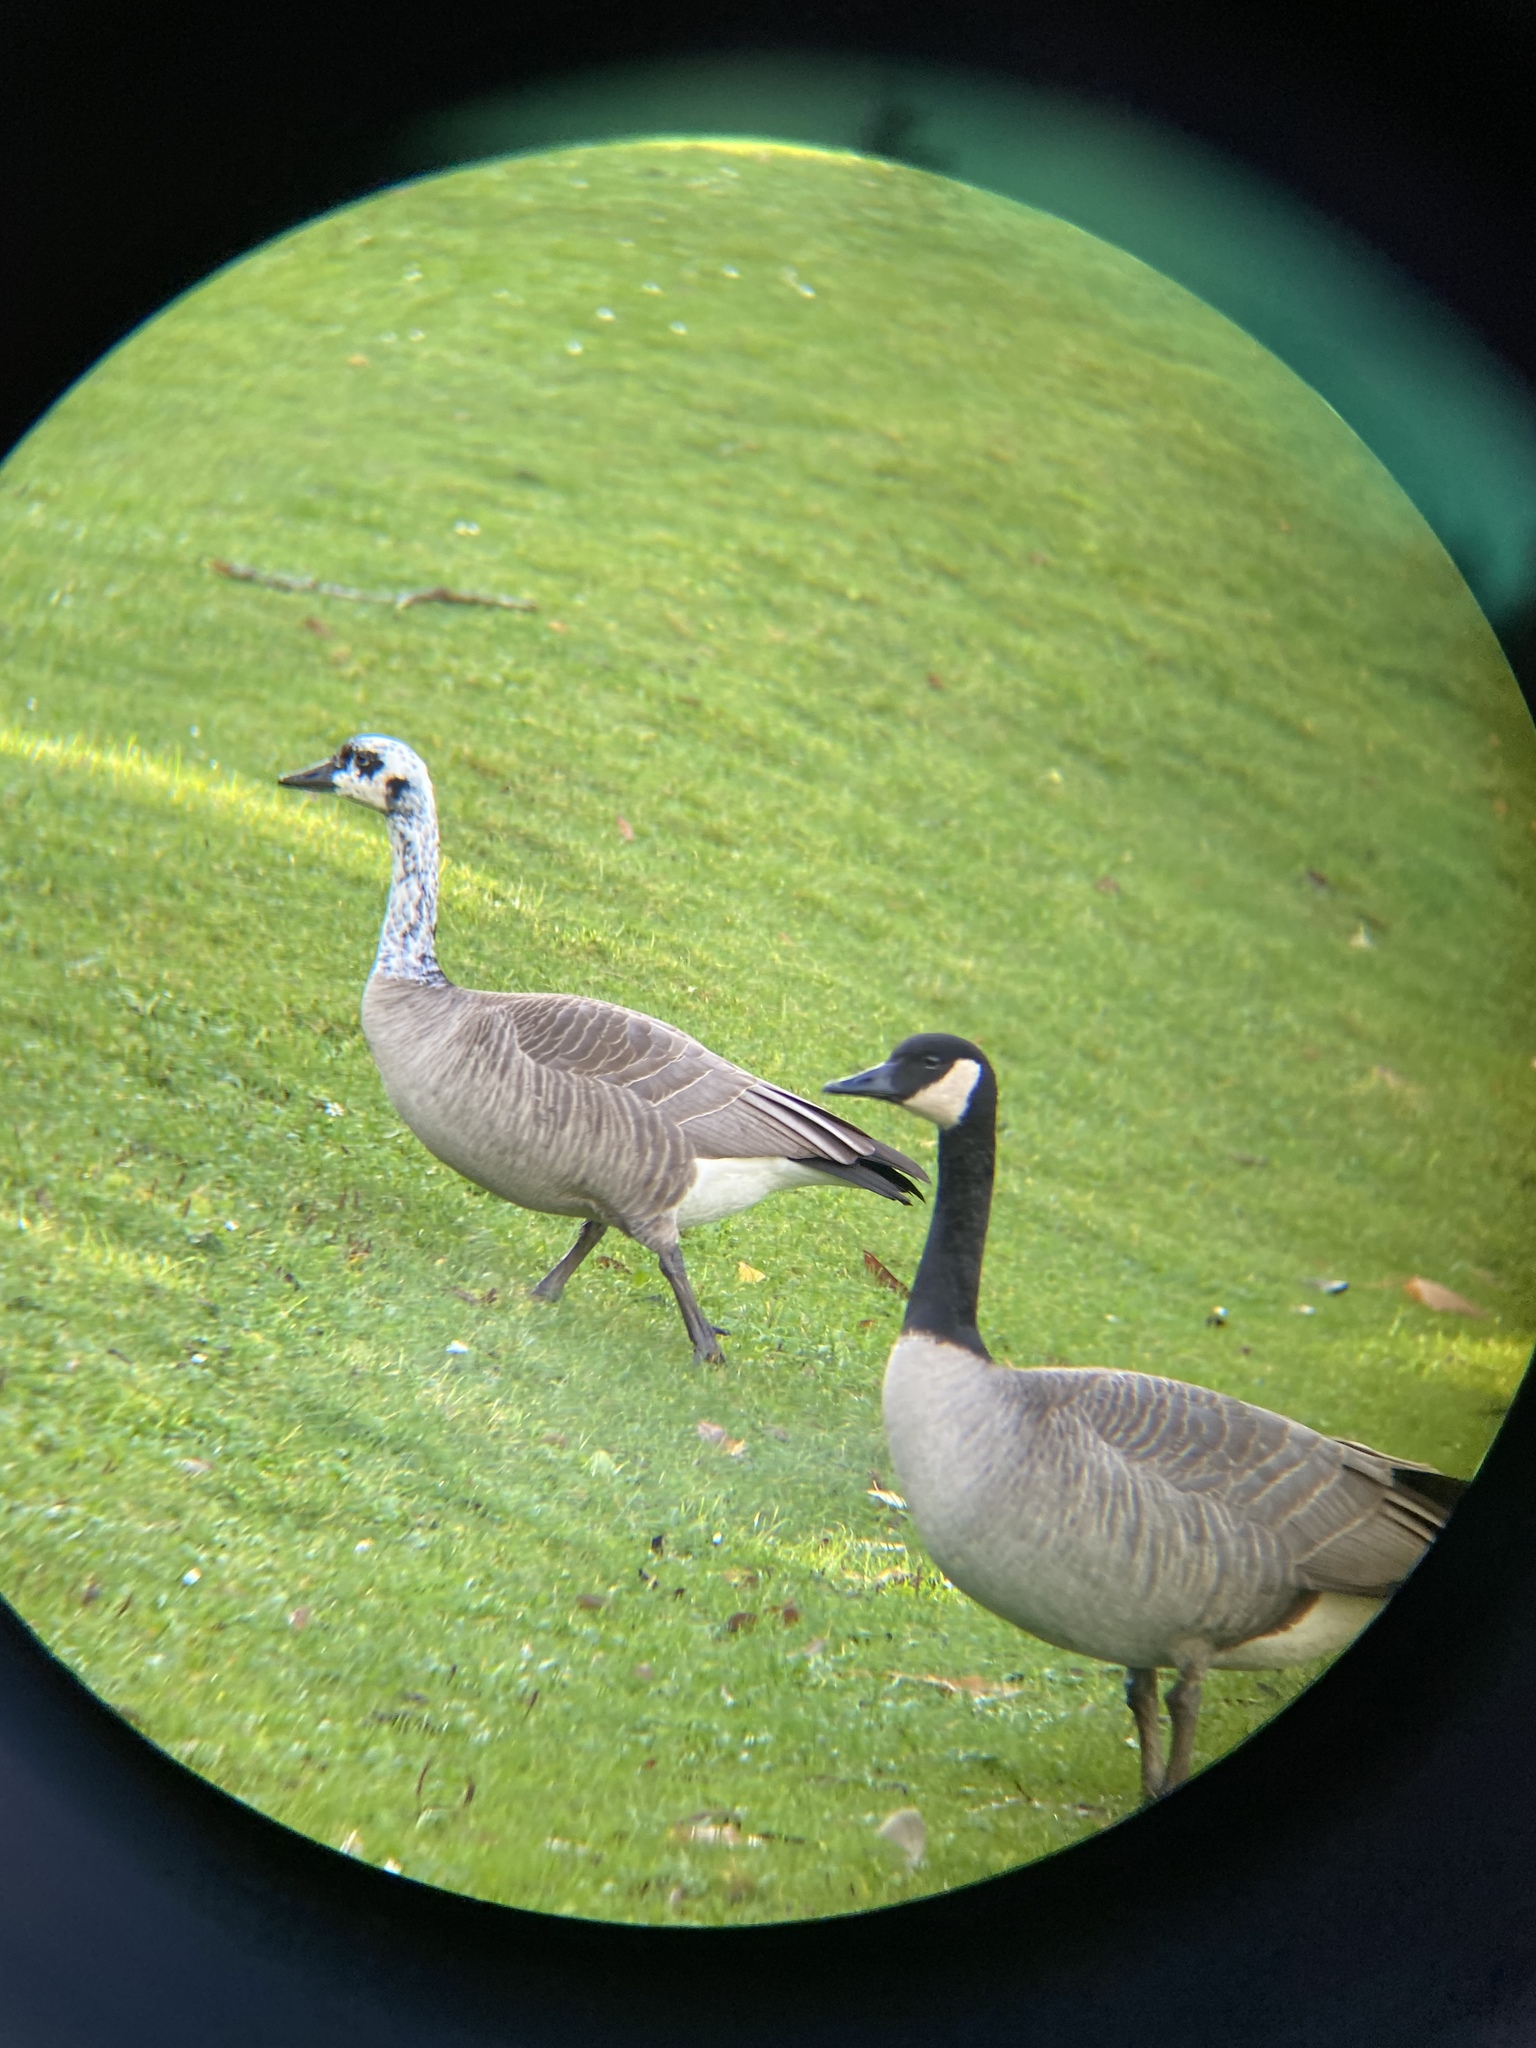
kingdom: Animalia
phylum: Chordata
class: Aves
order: Anseriformes
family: Anatidae
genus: Branta
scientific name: Branta canadensis
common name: Canada goose
